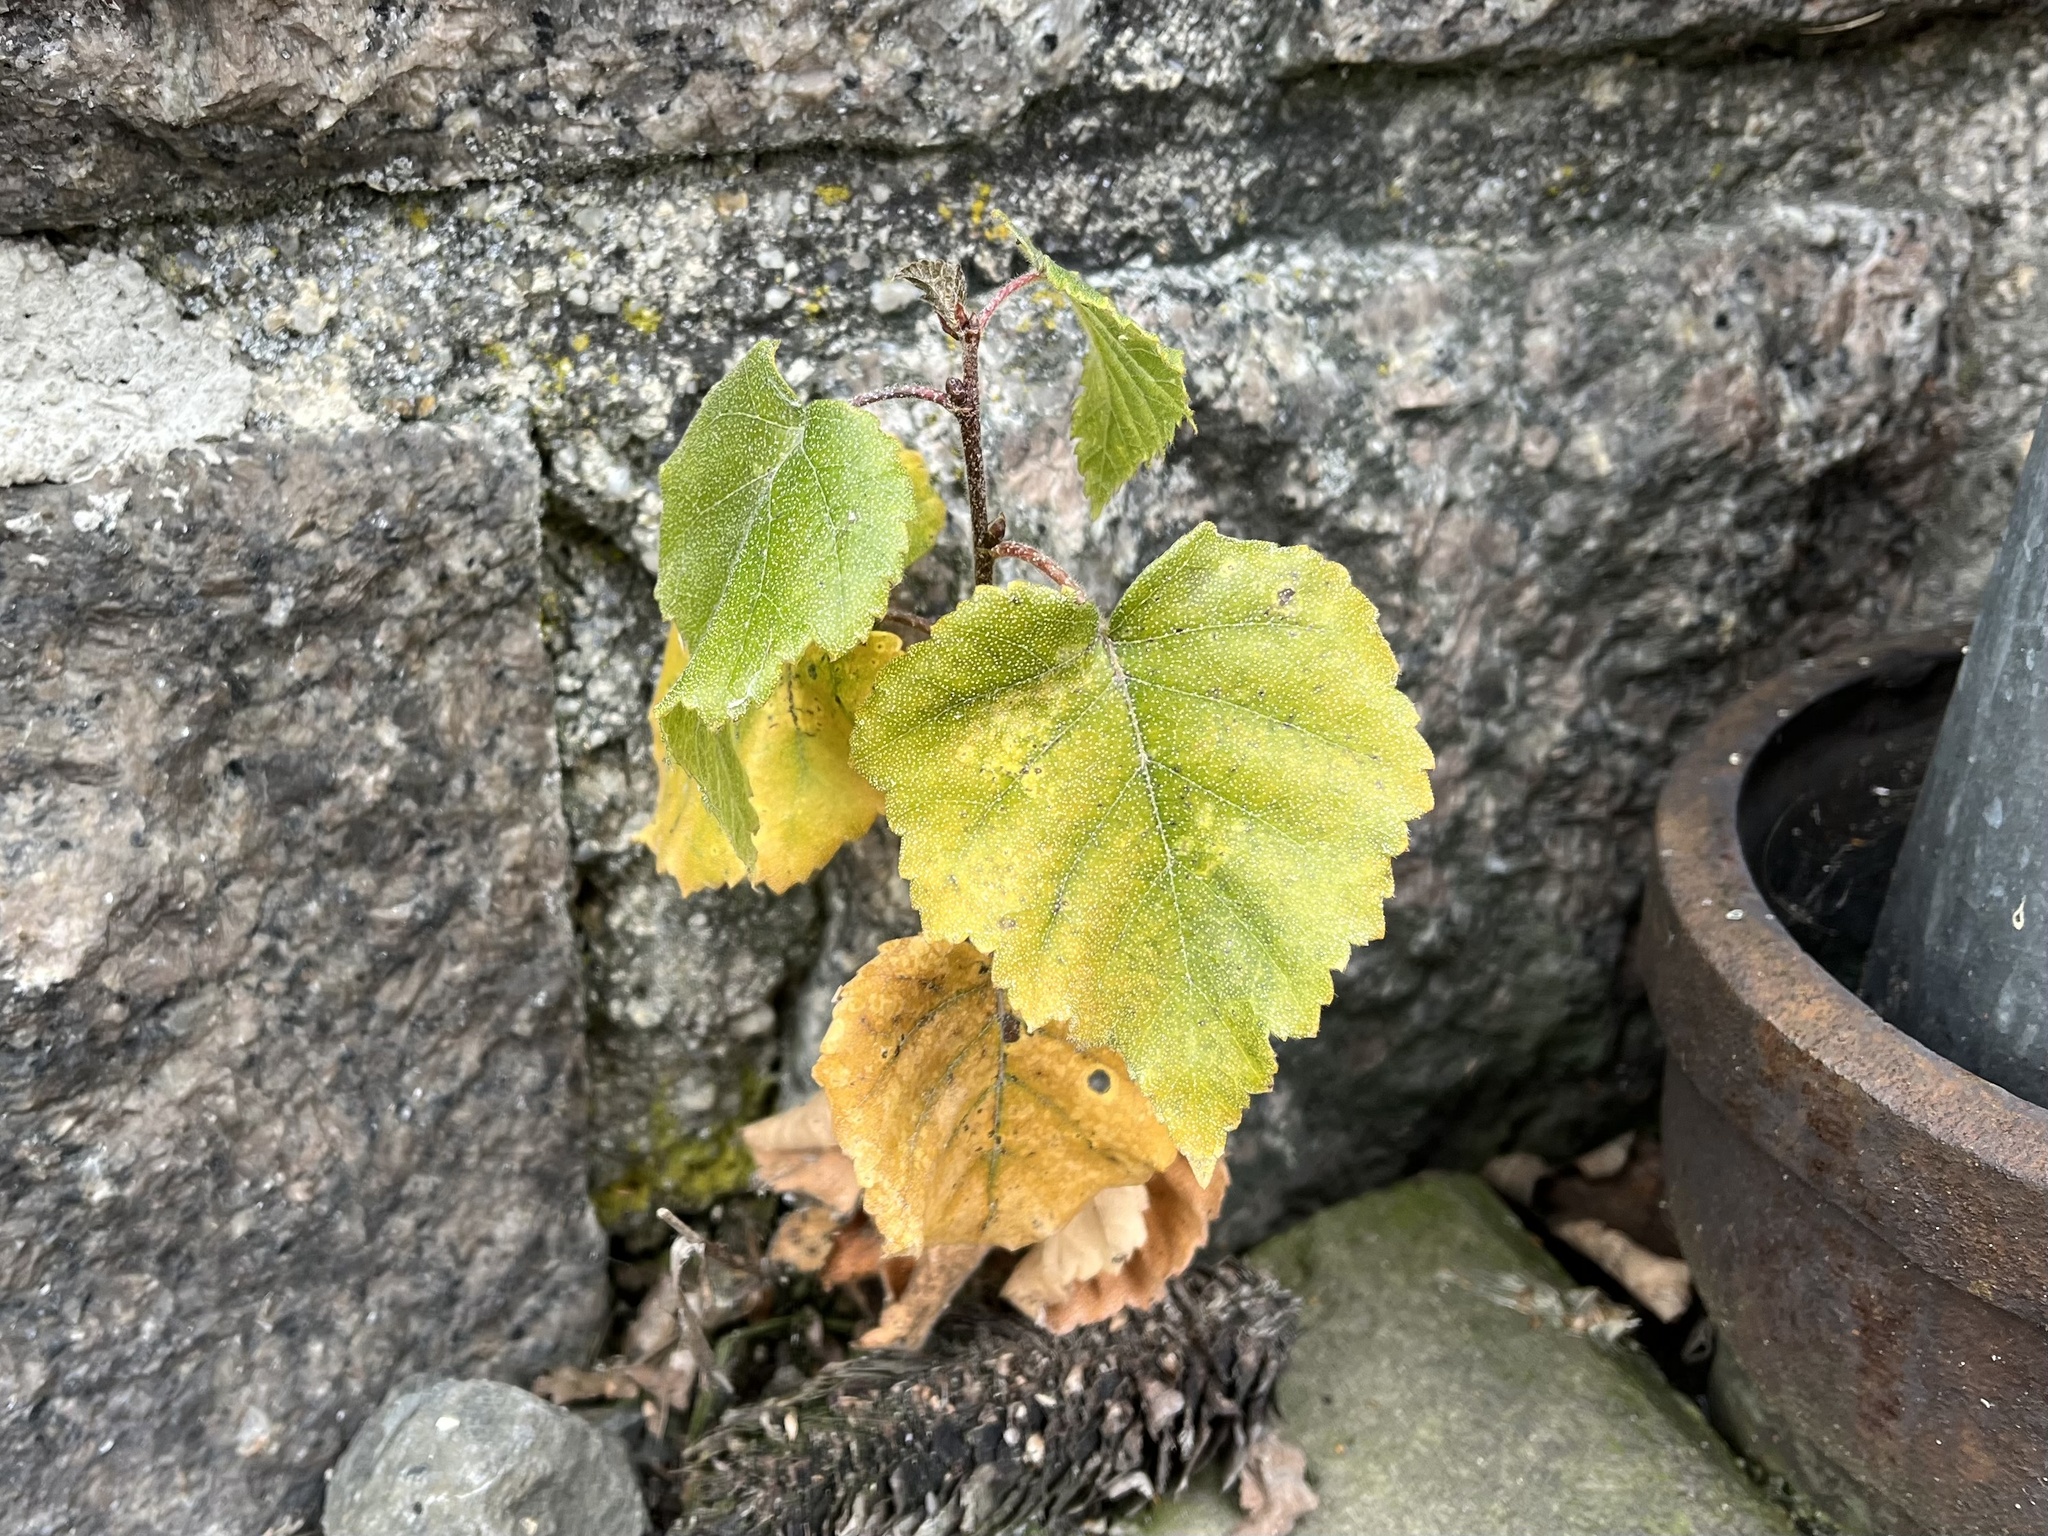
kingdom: Plantae
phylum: Tracheophyta
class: Magnoliopsida
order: Fagales
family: Betulaceae
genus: Betula
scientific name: Betula pendula
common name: Silver birch
